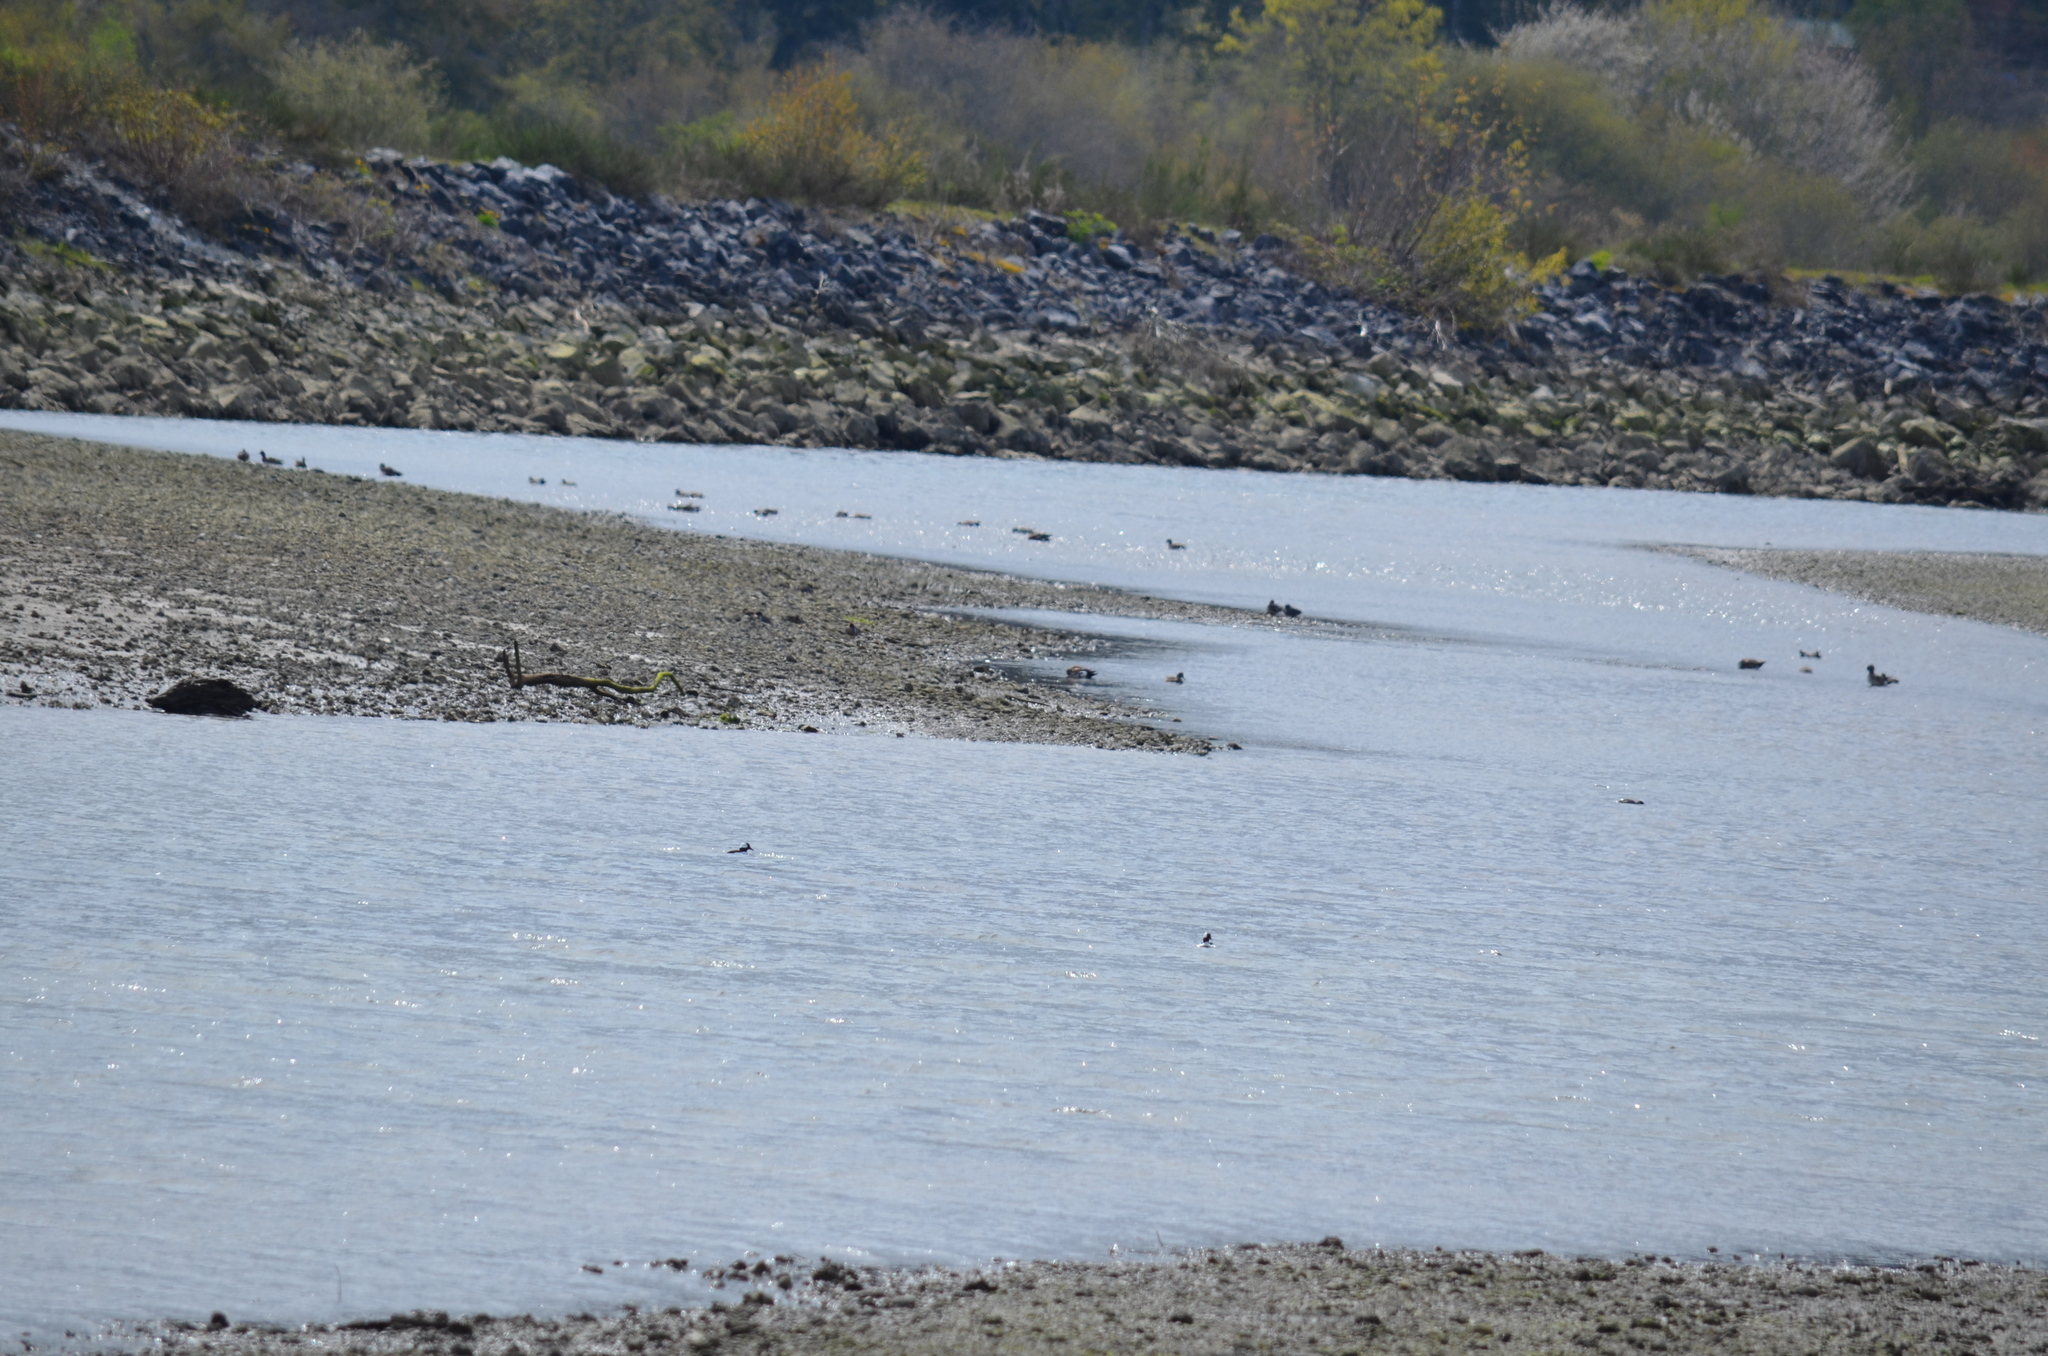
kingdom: Animalia
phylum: Chordata
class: Aves
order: Anseriformes
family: Anatidae
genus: Bucephala
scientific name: Bucephala albeola
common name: Bufflehead
